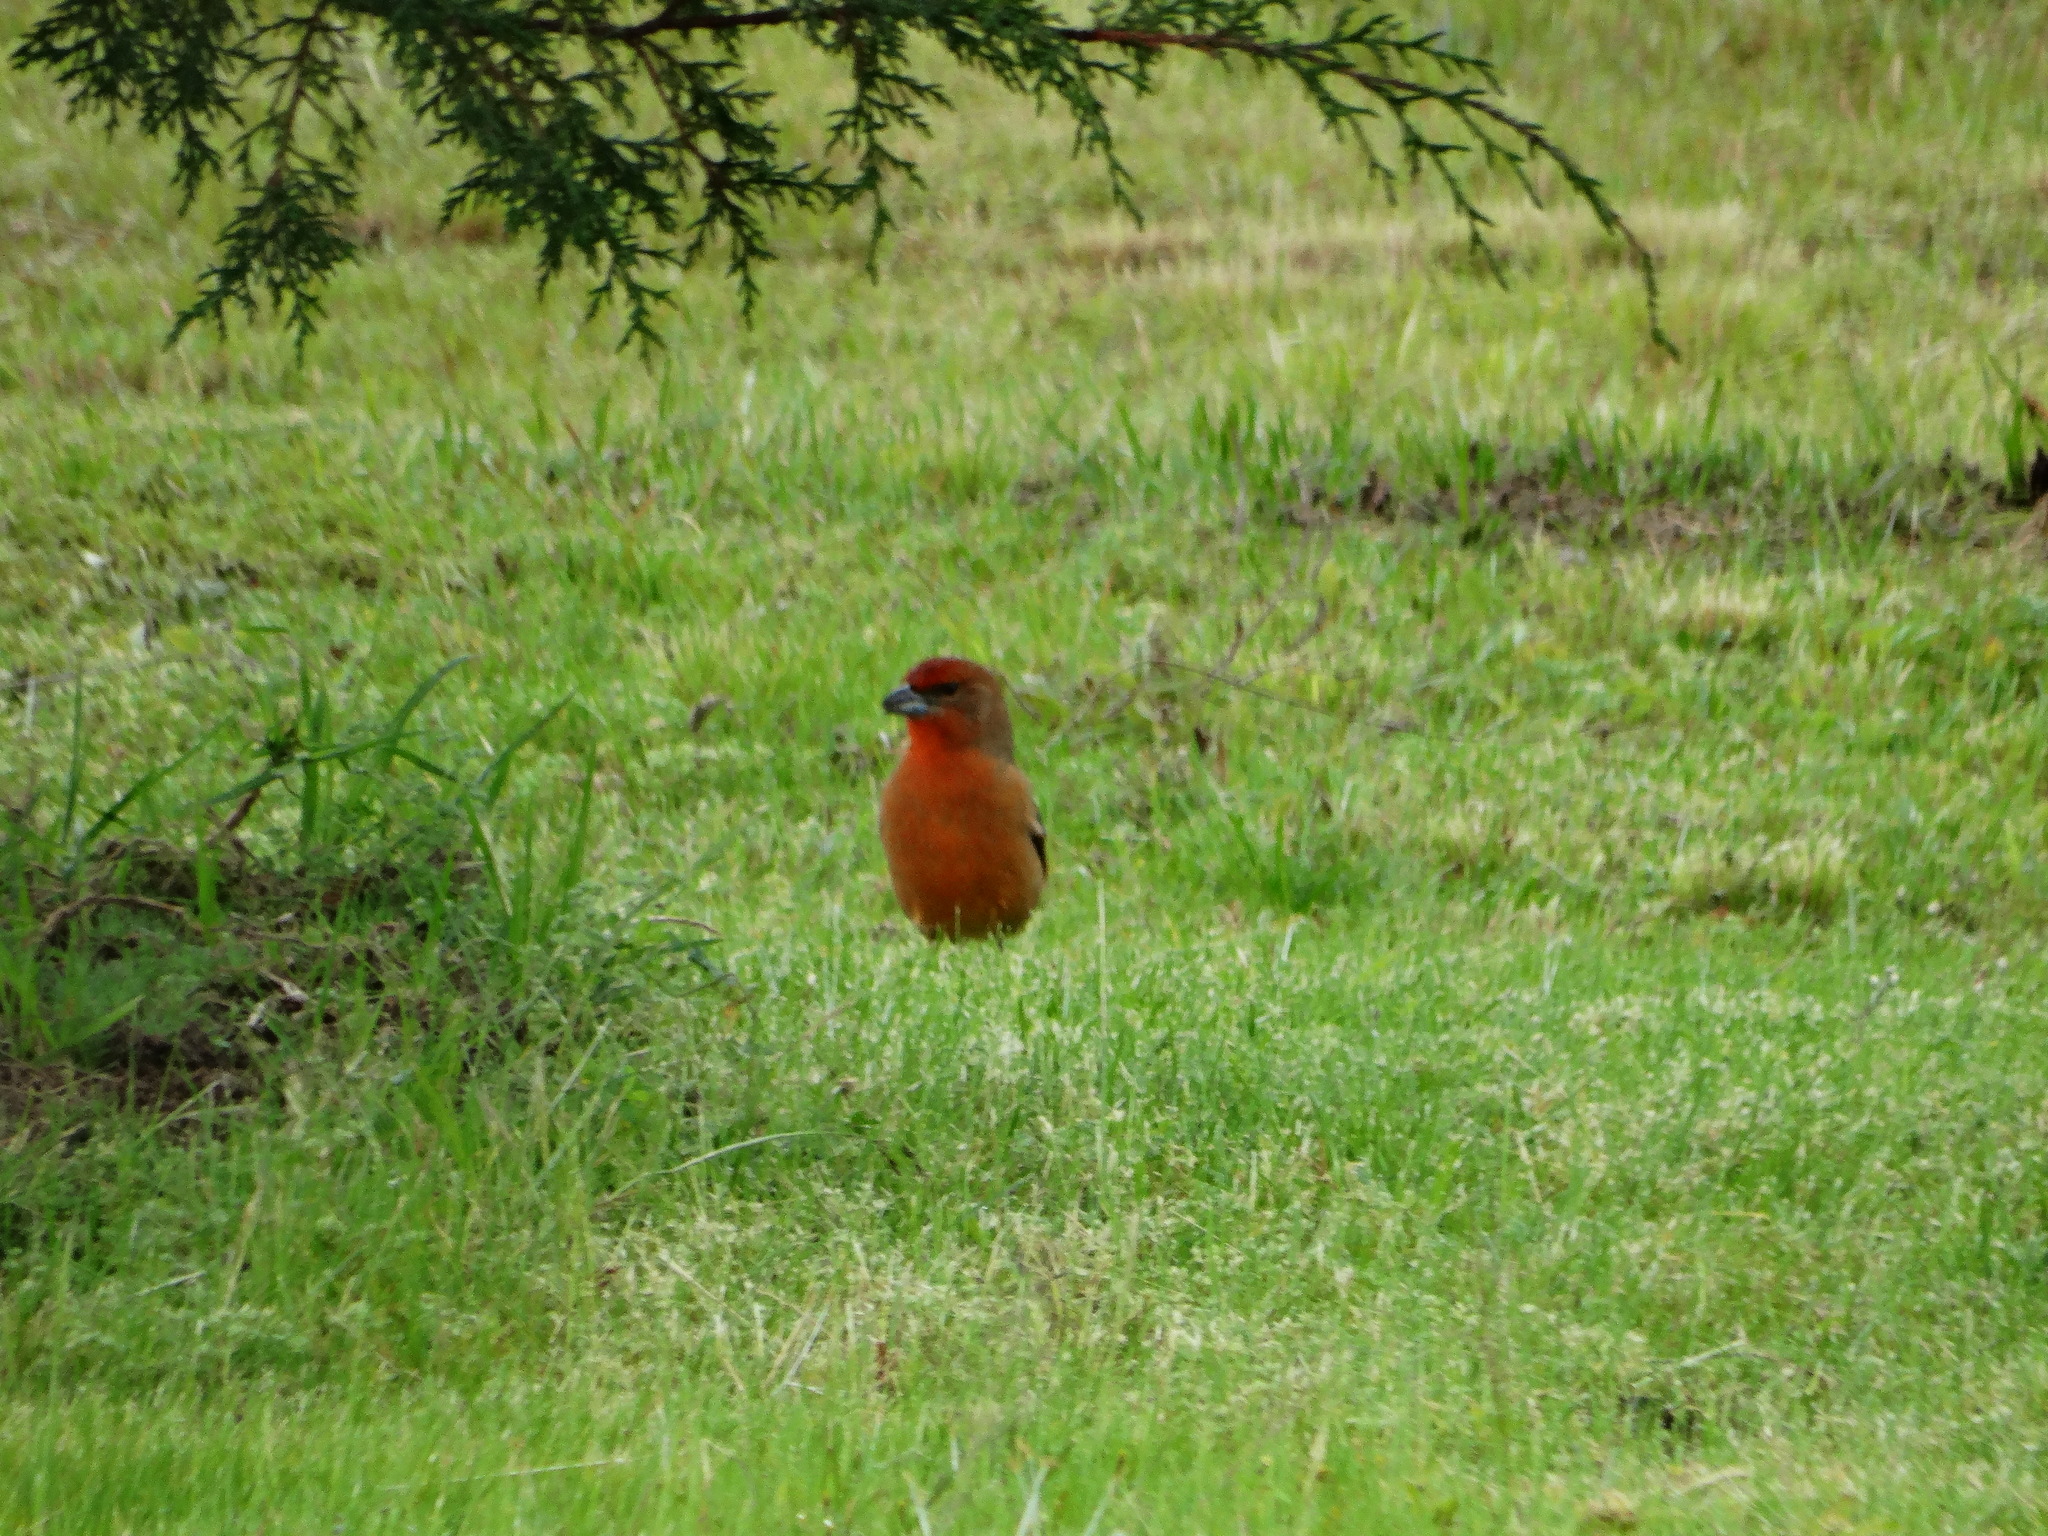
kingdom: Animalia
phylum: Chordata
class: Aves
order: Passeriformes
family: Fringillidae
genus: Loxia
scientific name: Loxia curvirostra
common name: Red crossbill
